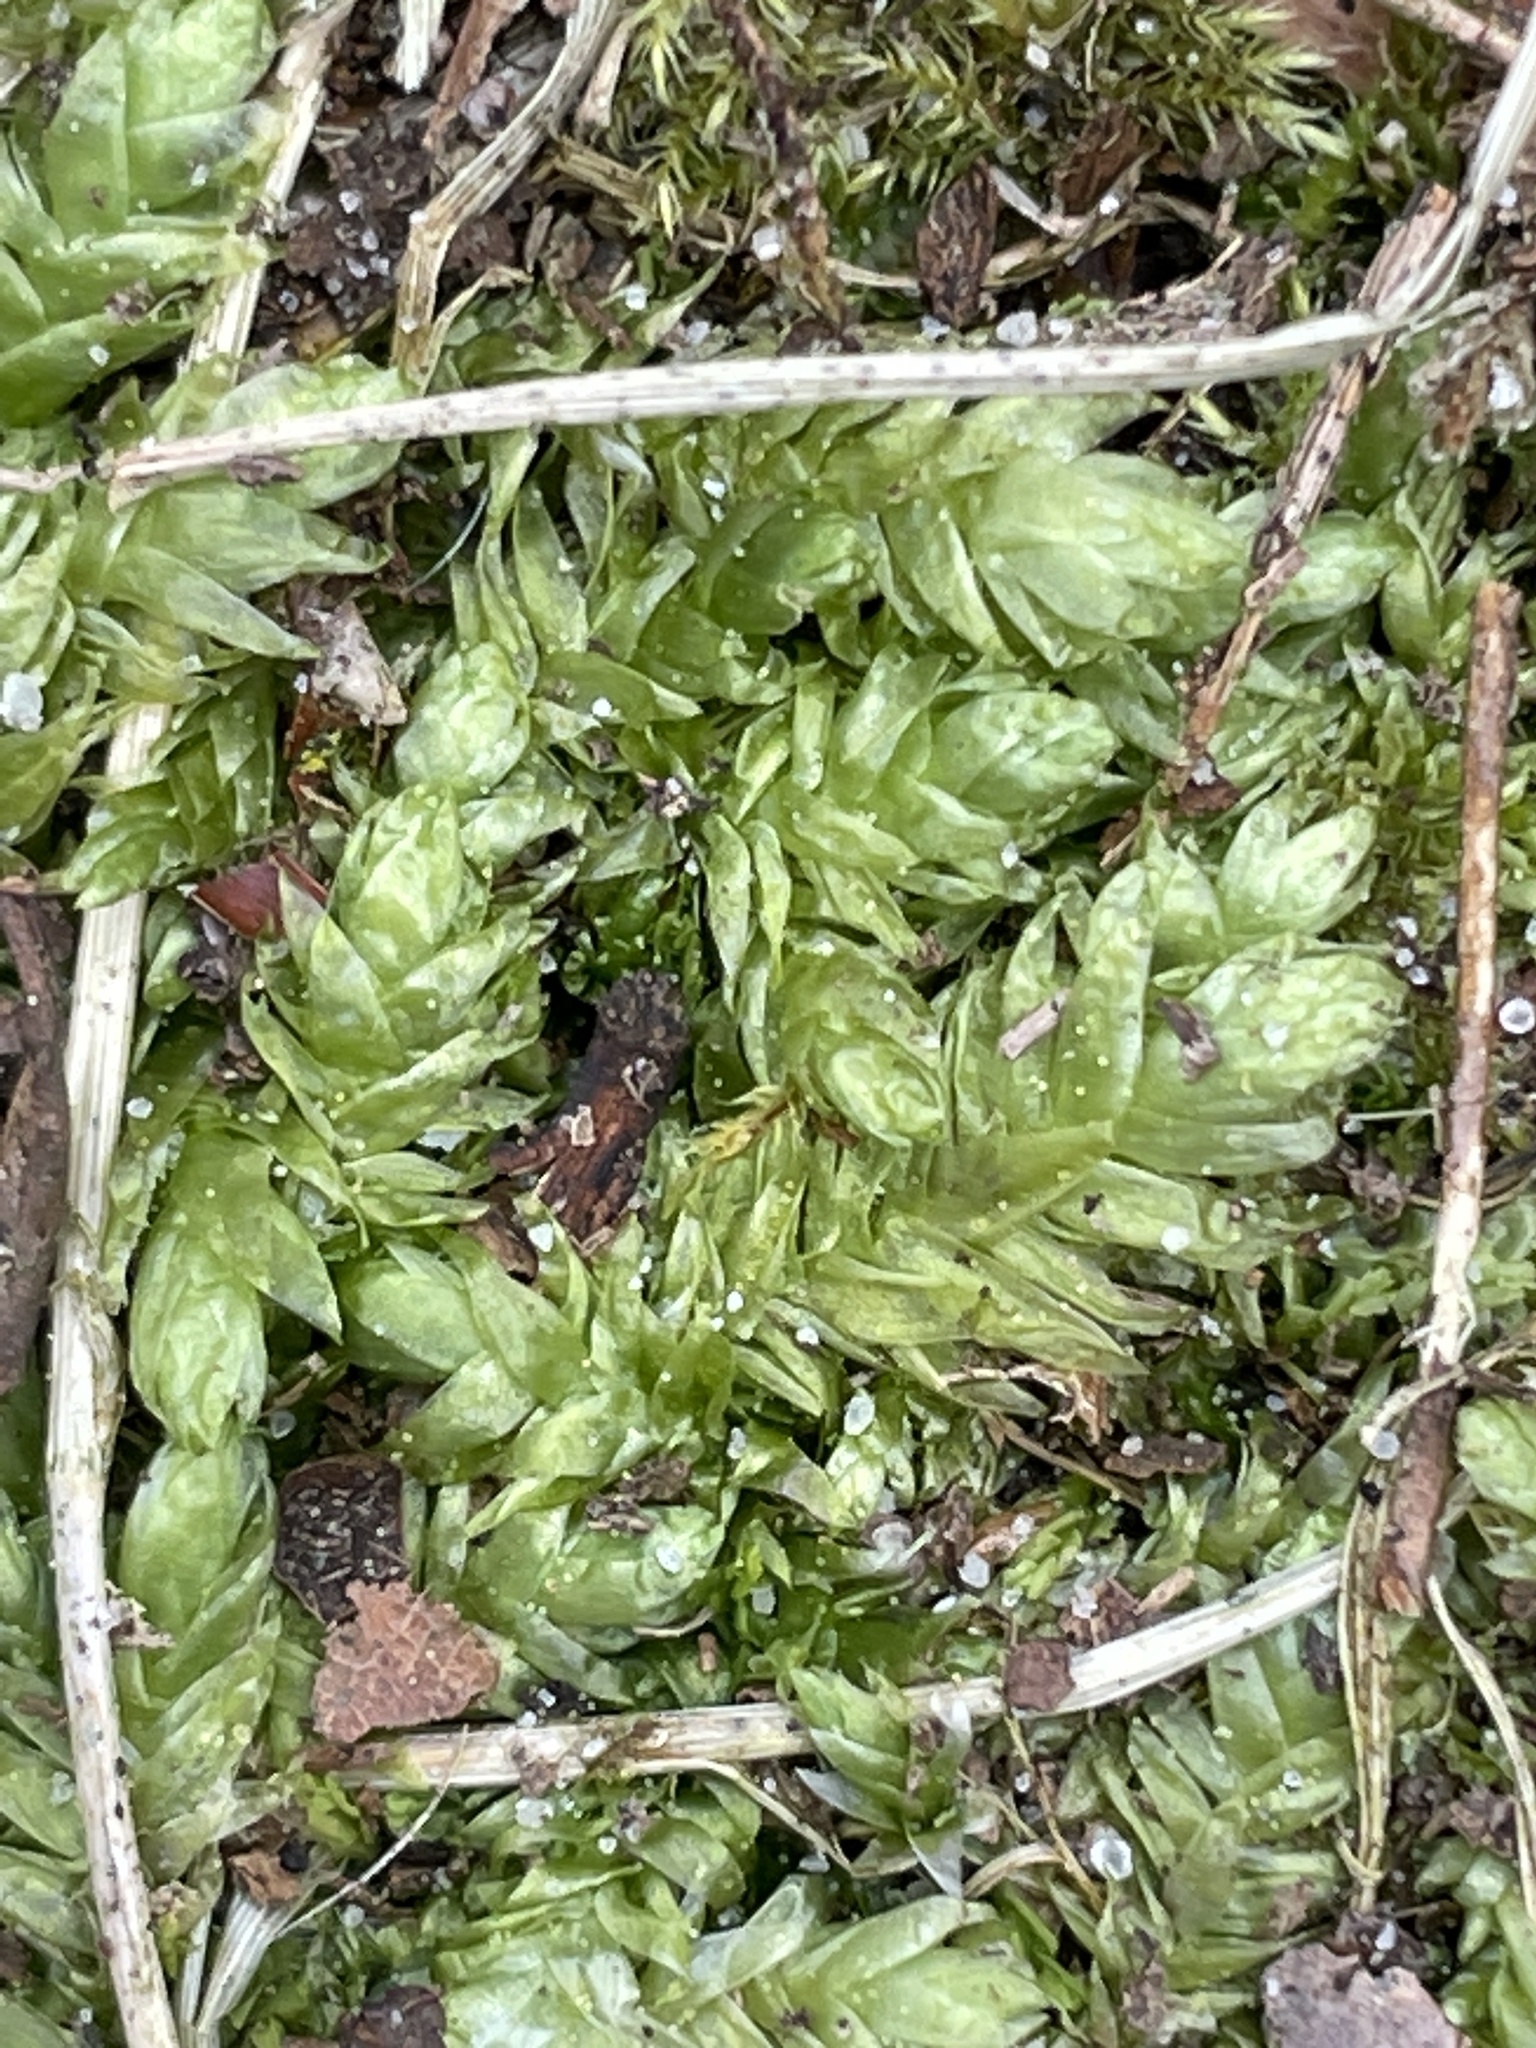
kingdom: Plantae
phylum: Bryophyta
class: Bryopsida
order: Hypnales
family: Plagiotheciaceae
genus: Plagiothecium
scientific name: Plagiothecium undulatum
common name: Waved silk-moss
